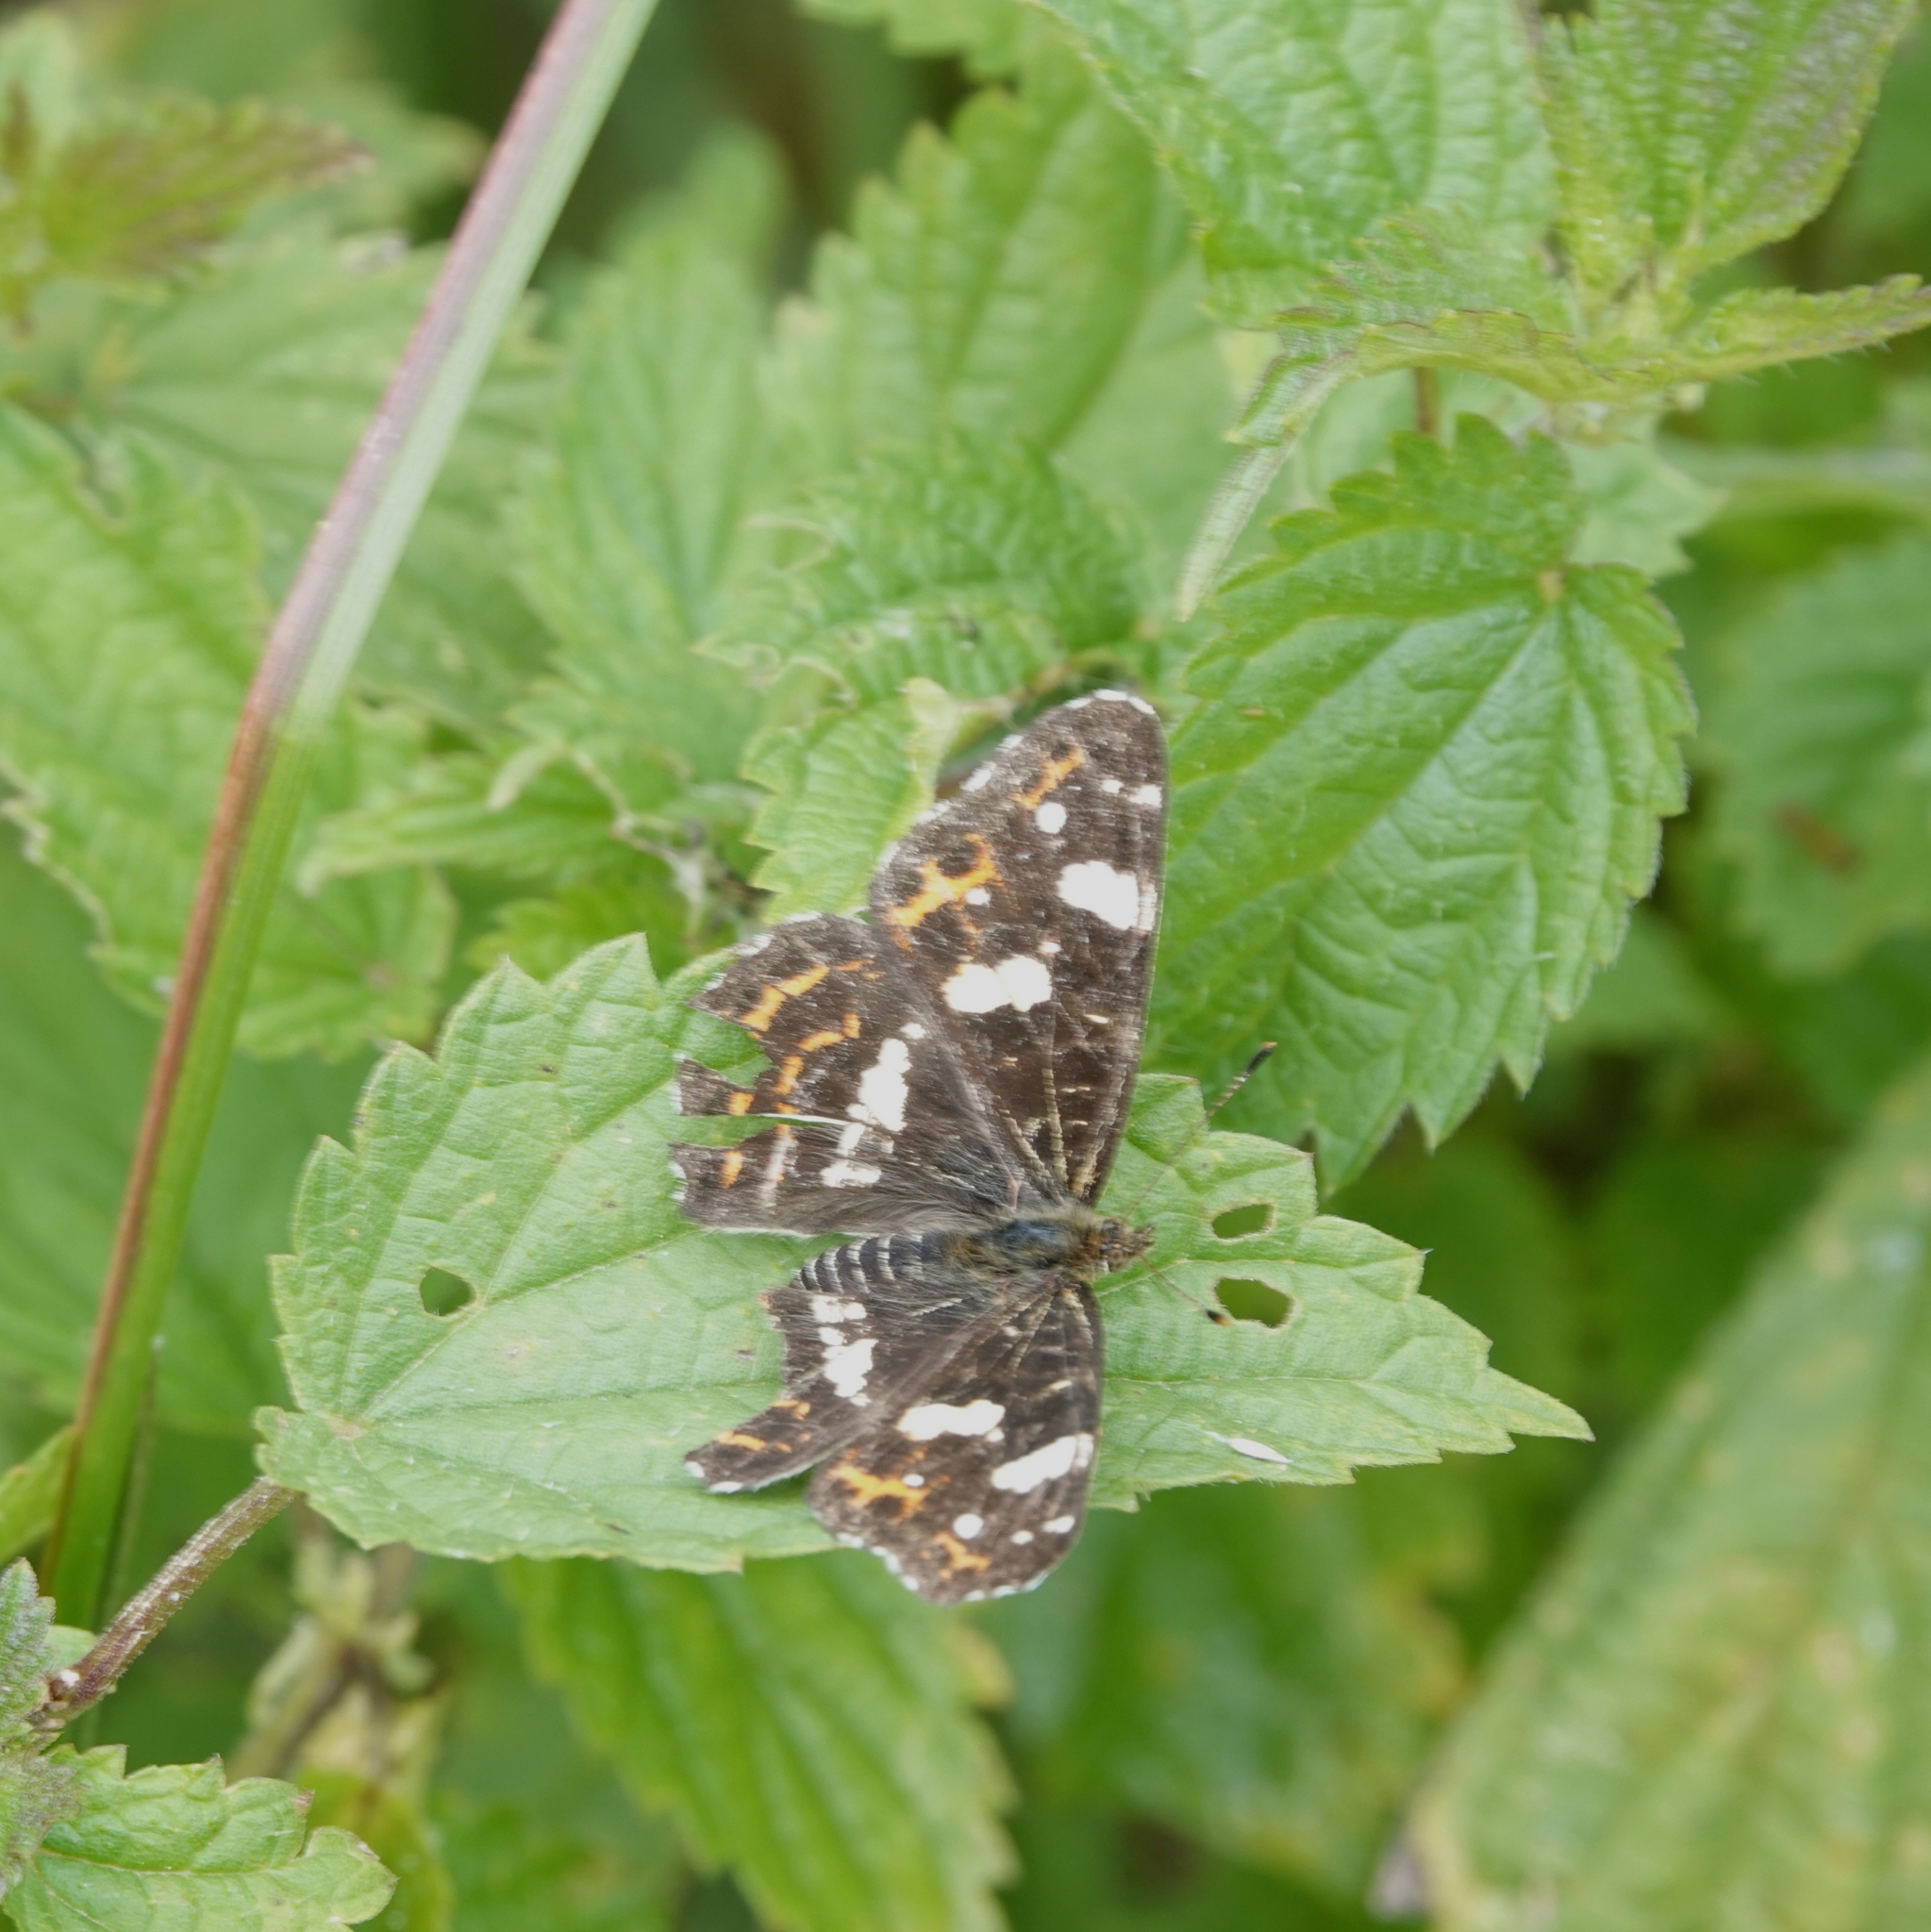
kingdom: Animalia
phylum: Arthropoda
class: Insecta
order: Lepidoptera
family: Nymphalidae
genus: Araschnia
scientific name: Araschnia levana
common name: Map butterfly
